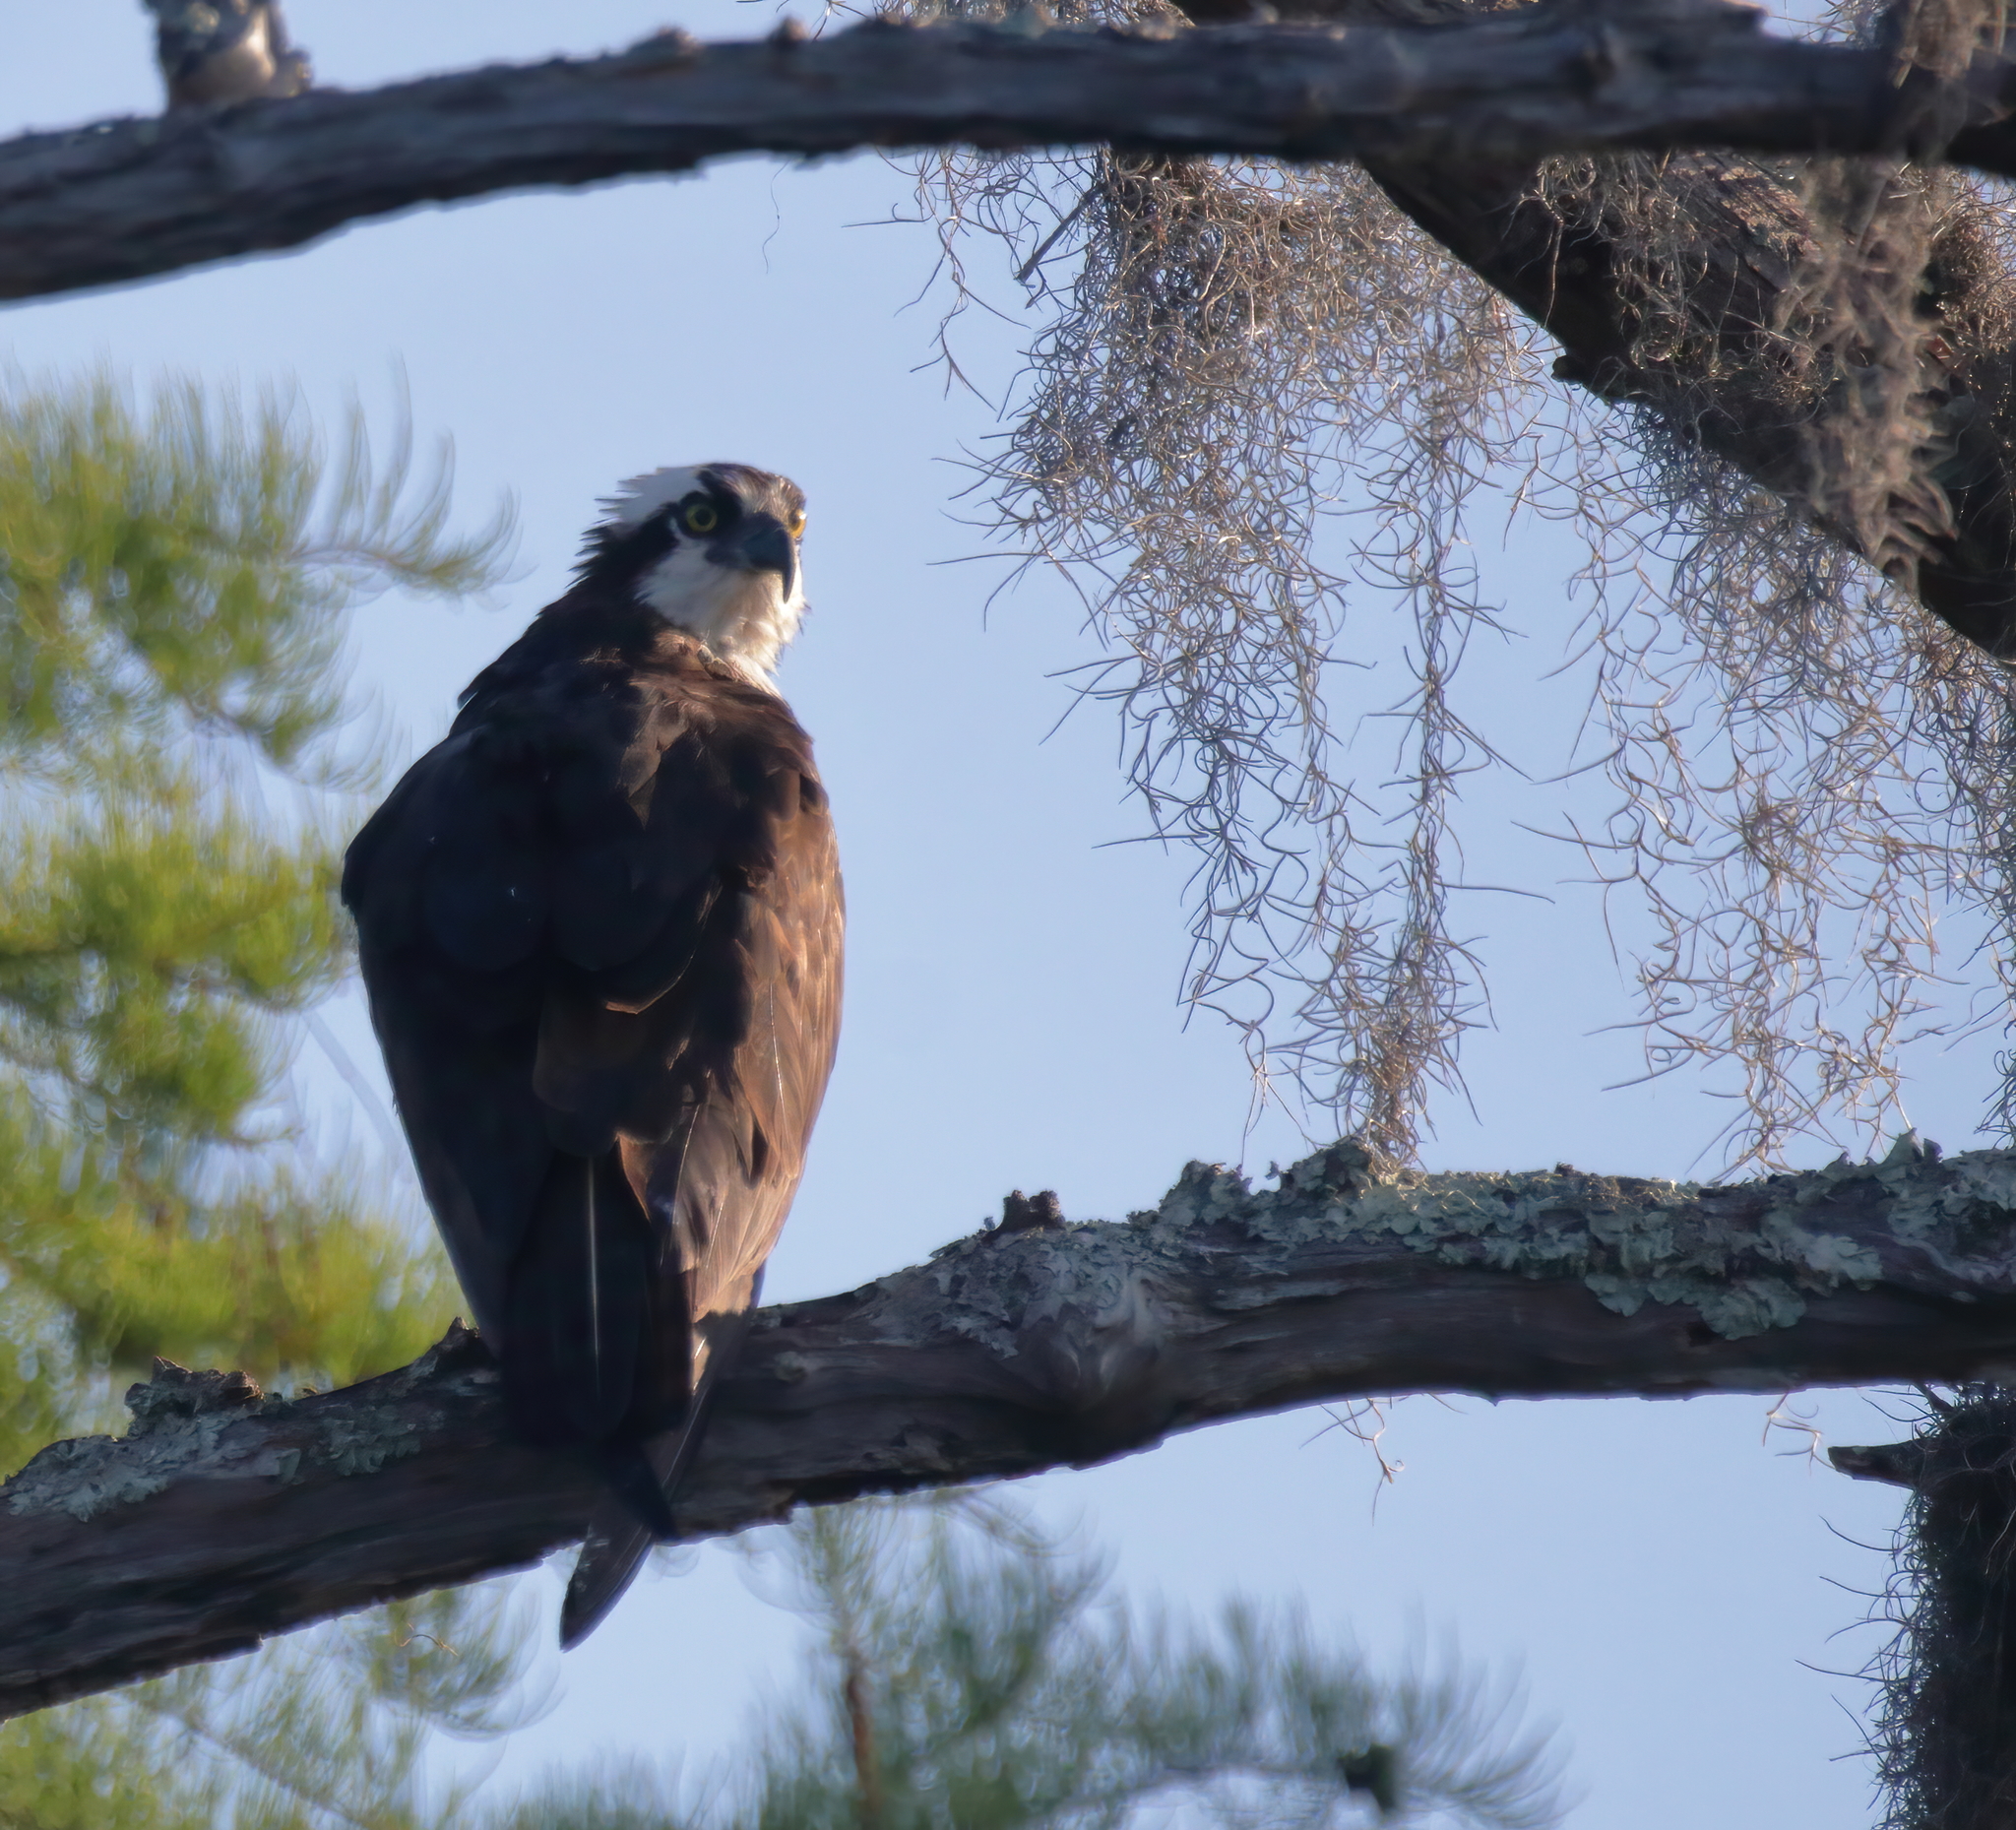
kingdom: Animalia
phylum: Chordata
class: Aves
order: Accipitriformes
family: Pandionidae
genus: Pandion
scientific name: Pandion haliaetus
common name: Osprey
